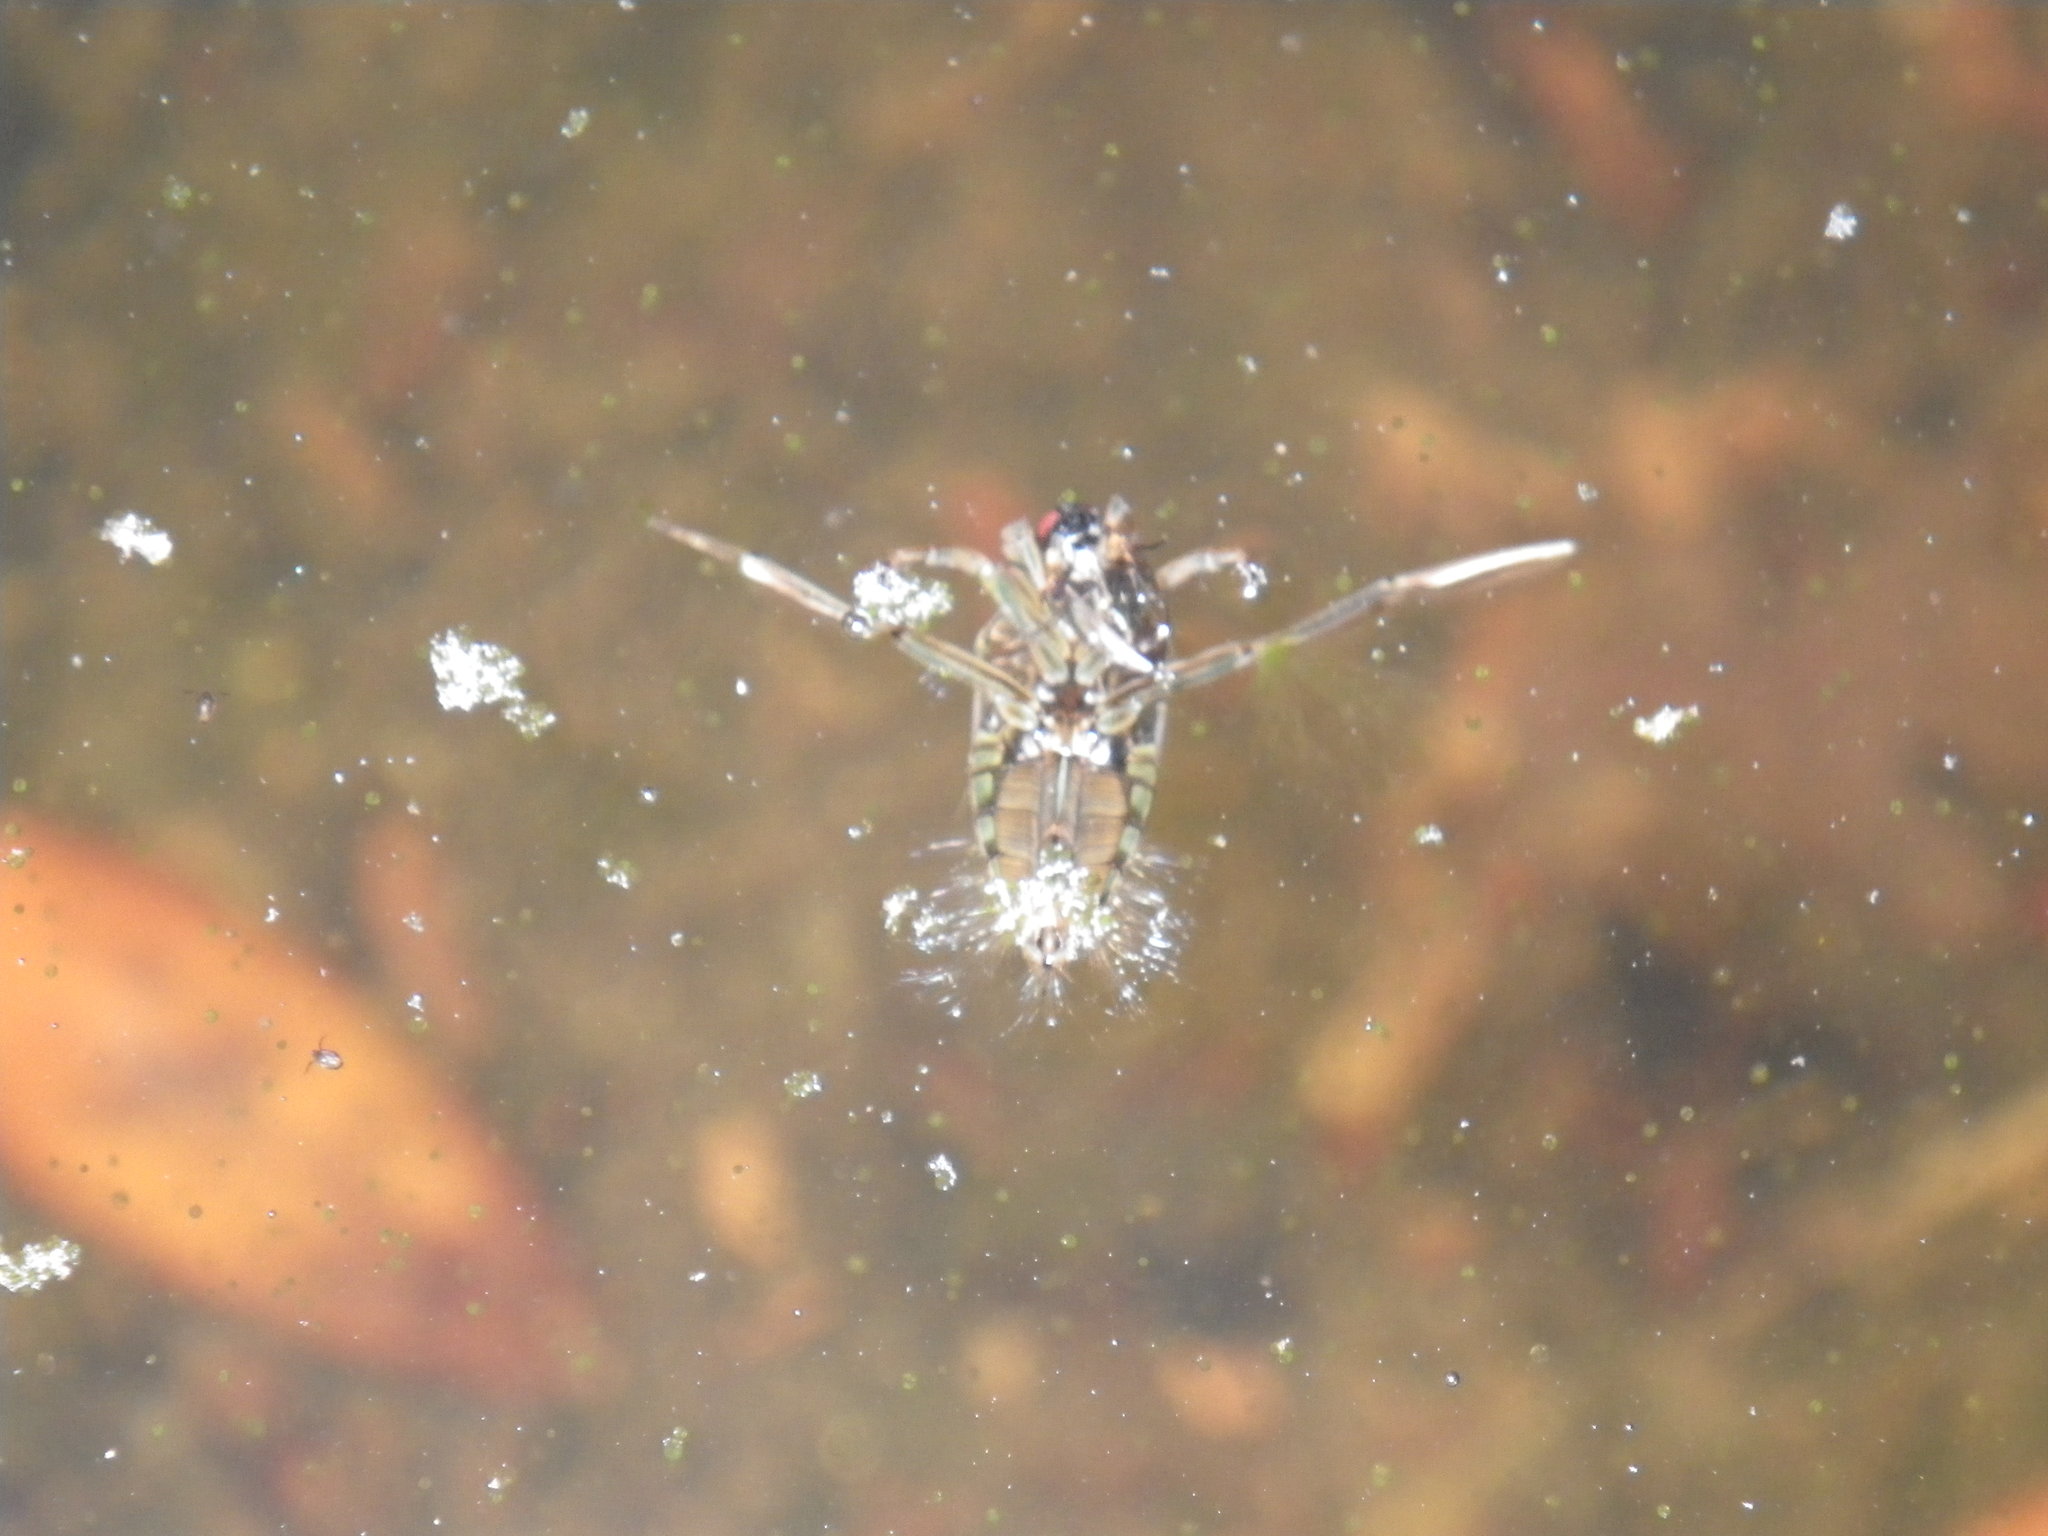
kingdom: Animalia
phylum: Arthropoda
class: Insecta
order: Hemiptera
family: Notonectidae
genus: Notonecta
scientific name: Notonecta
